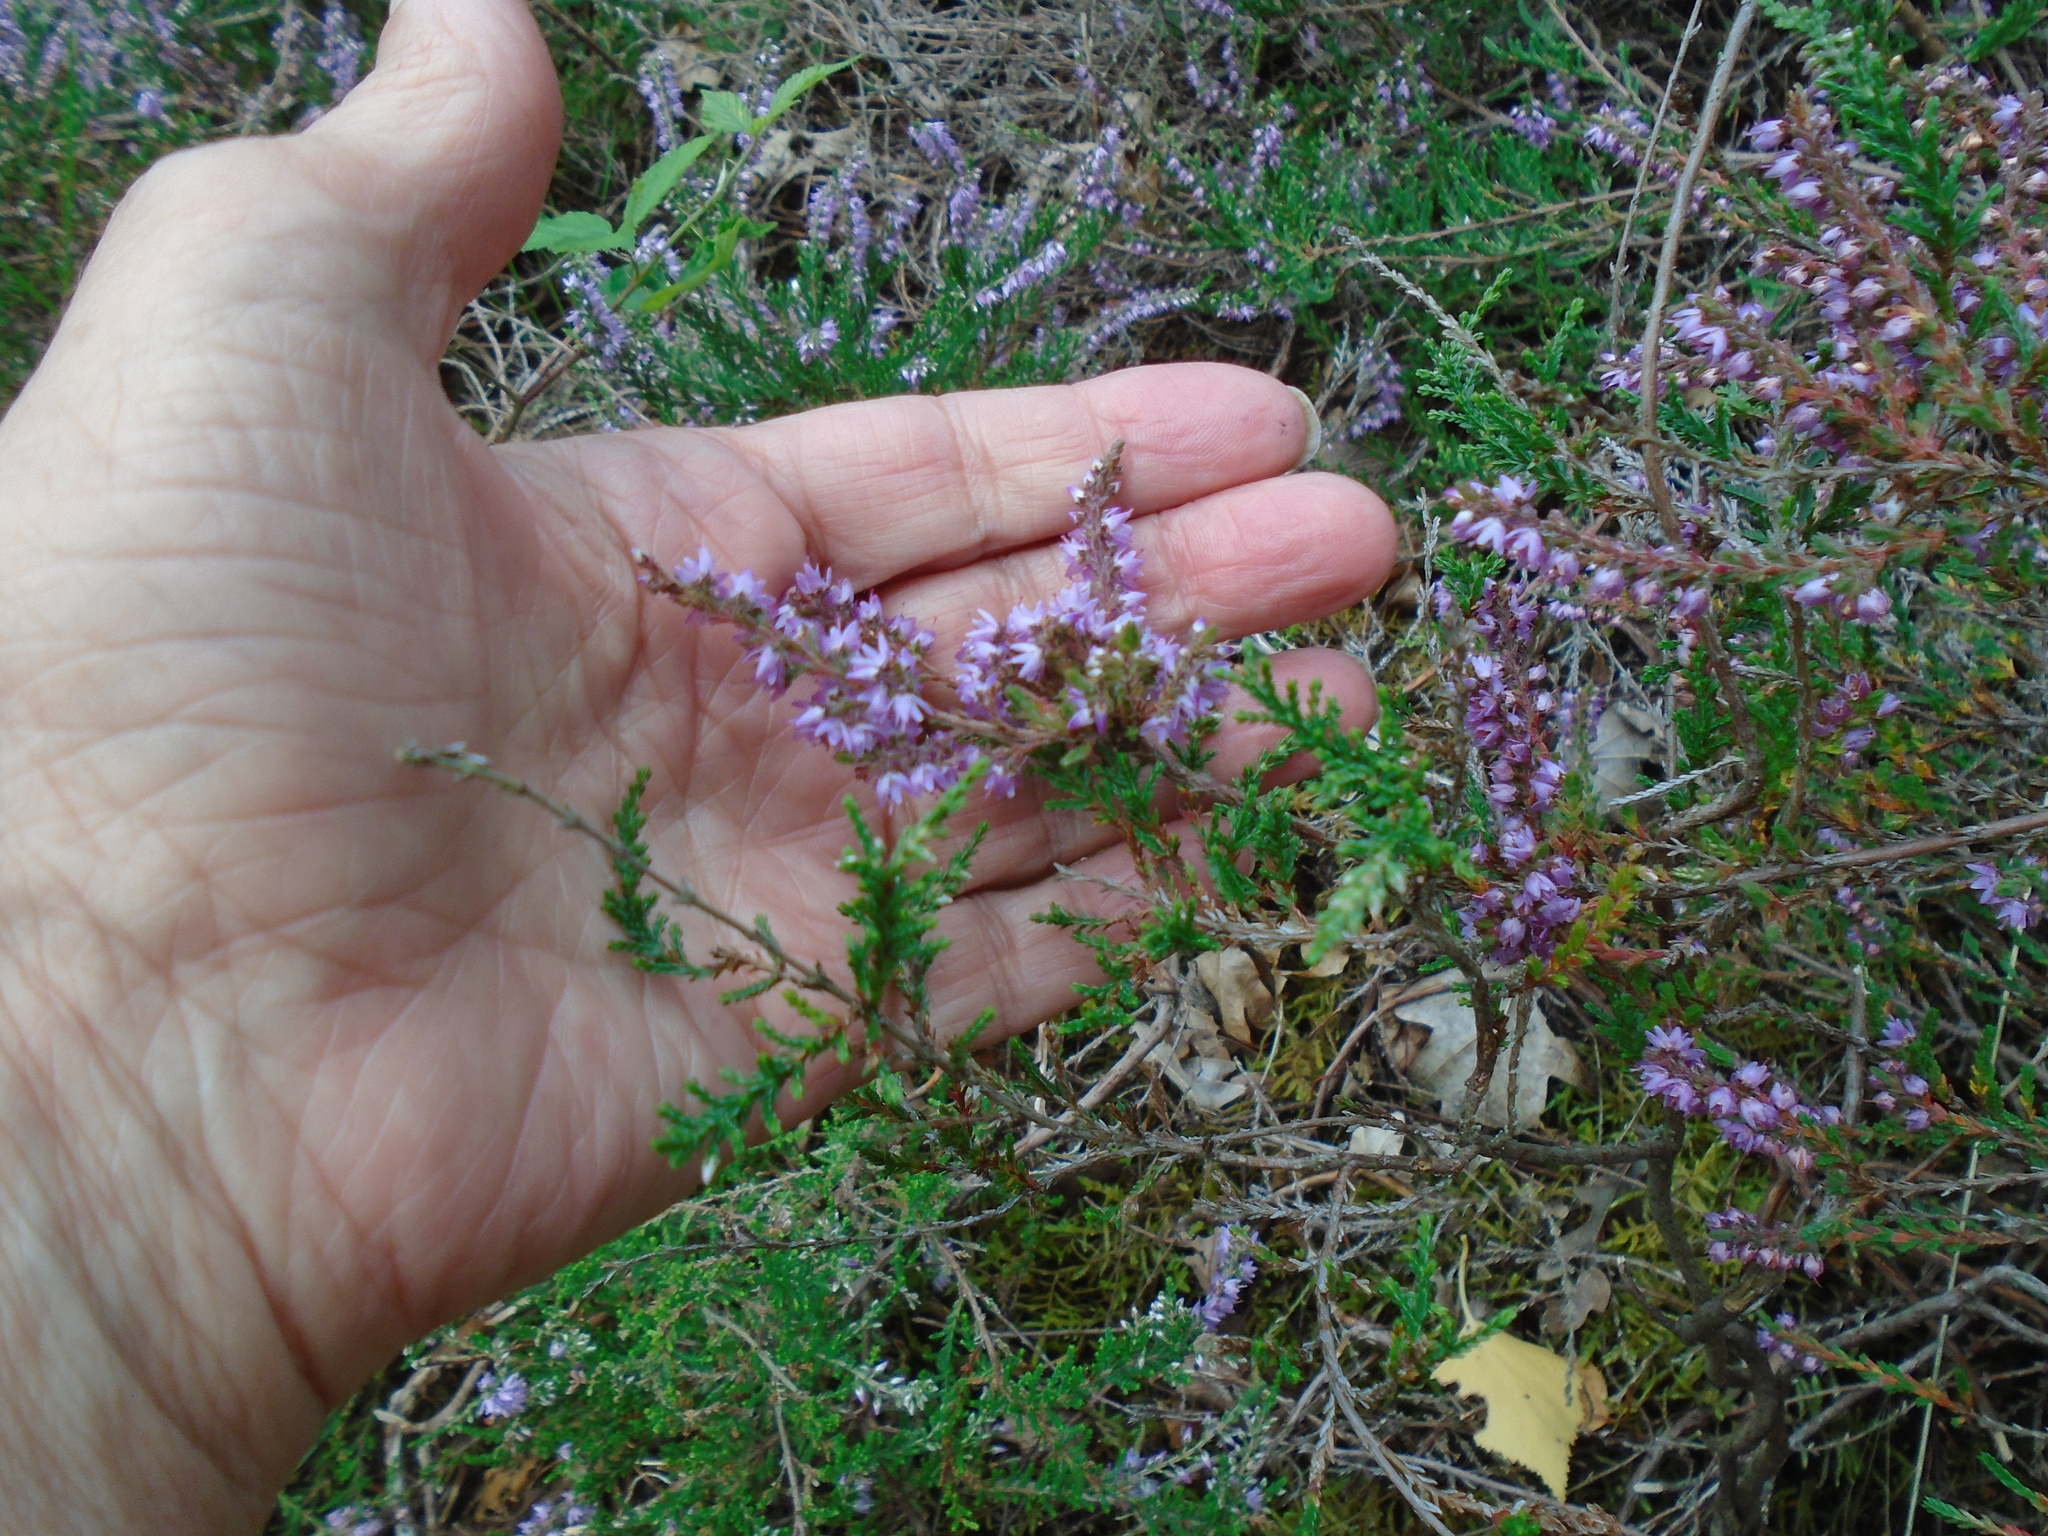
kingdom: Plantae
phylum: Tracheophyta
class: Magnoliopsida
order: Ericales
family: Ericaceae
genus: Calluna
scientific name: Calluna vulgaris
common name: Heather
